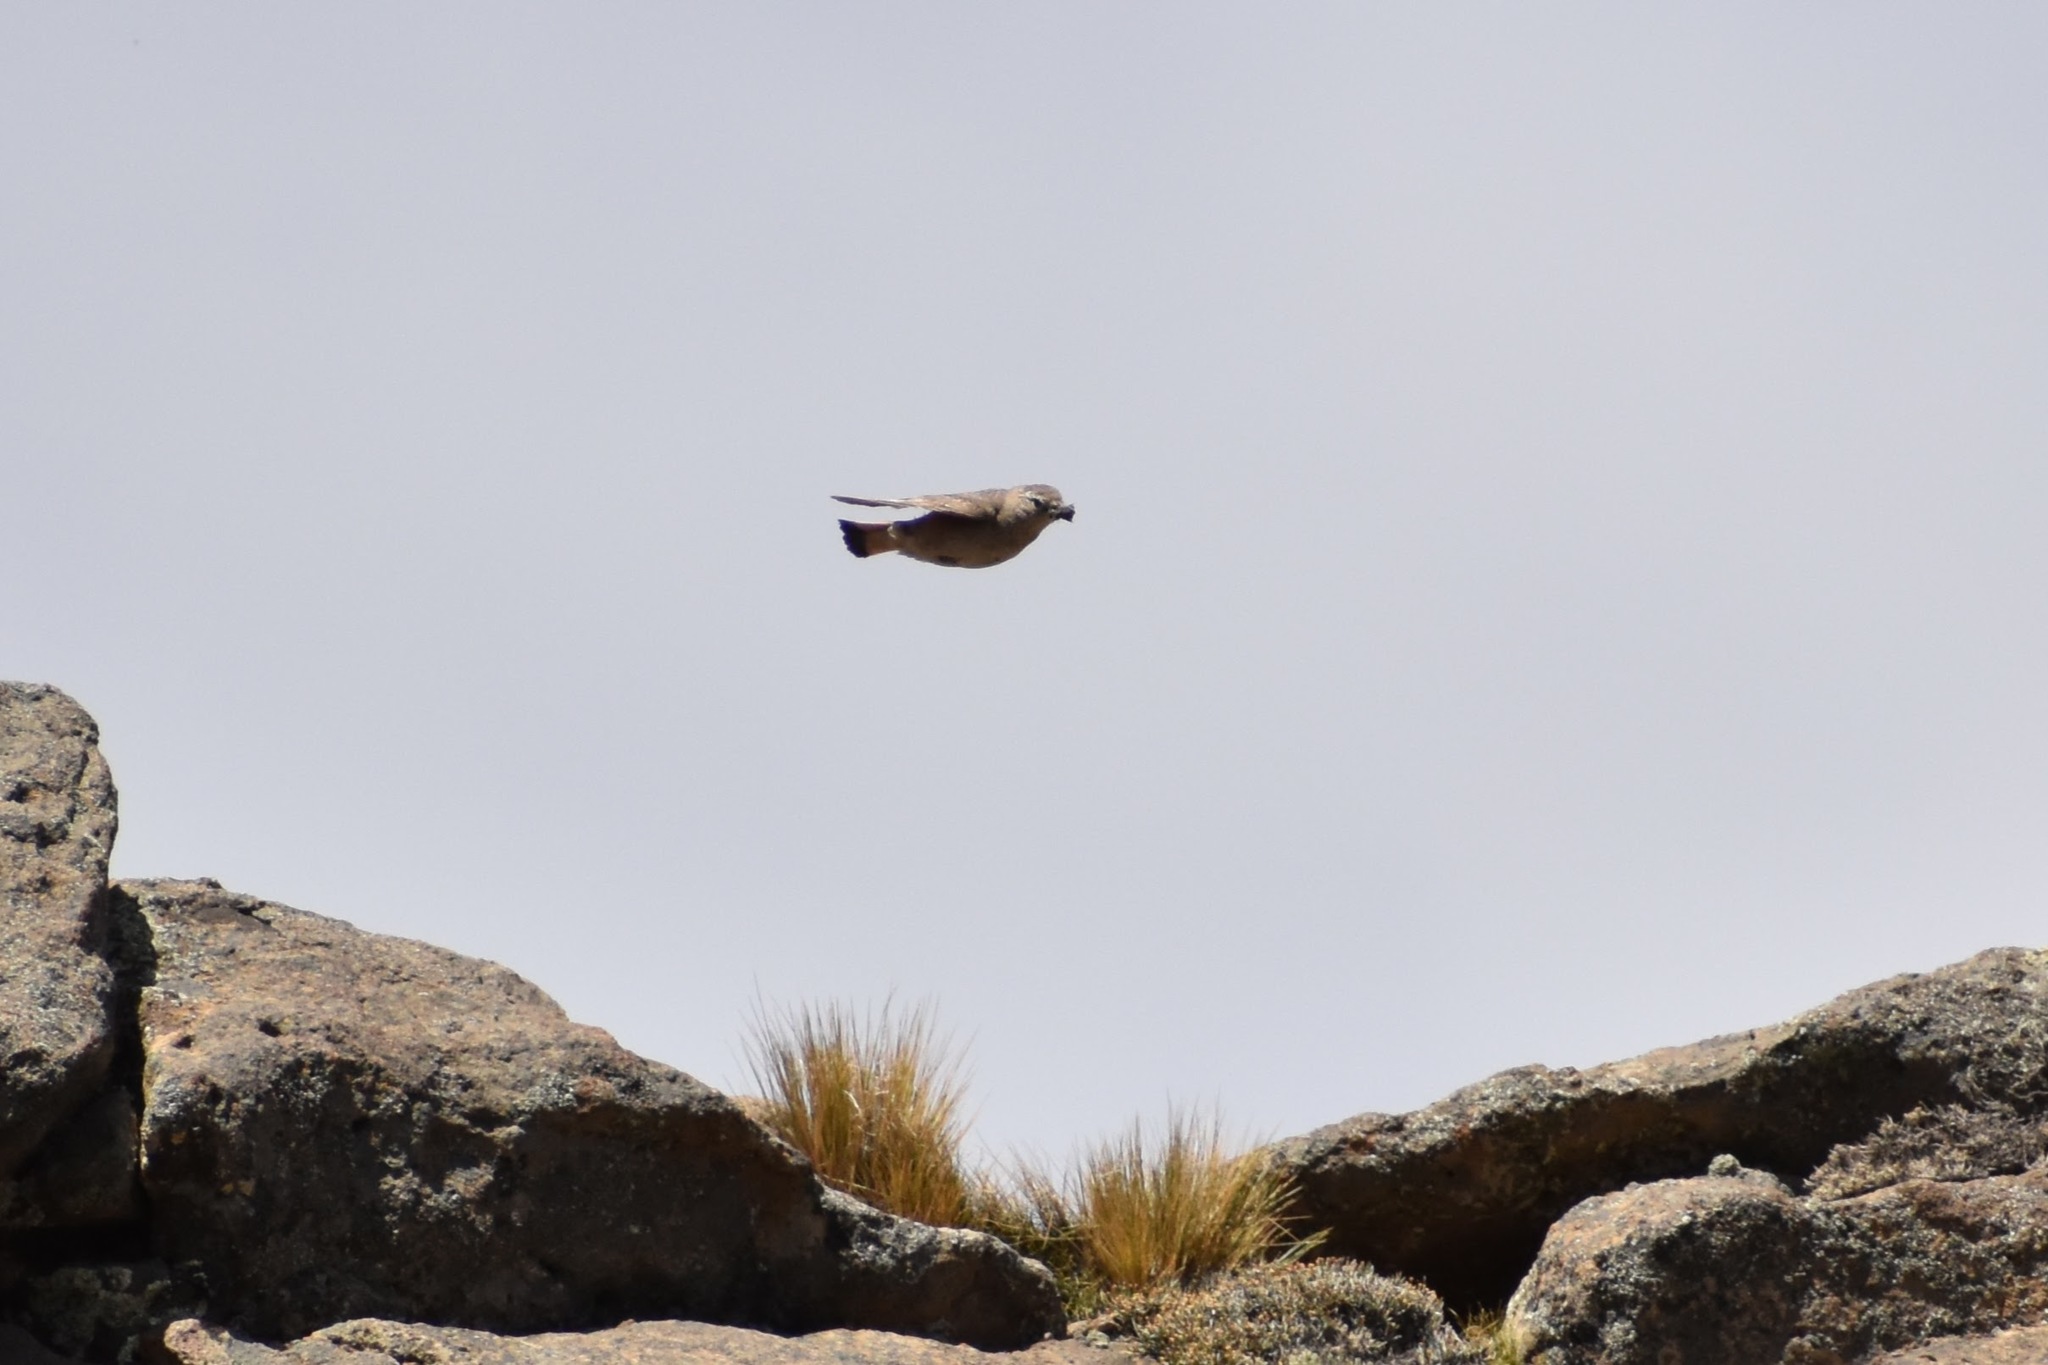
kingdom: Animalia
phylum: Chordata
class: Aves
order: Passeriformes
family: Furnariidae
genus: Geositta
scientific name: Geositta rufipennis
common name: Rufous-banded miner
